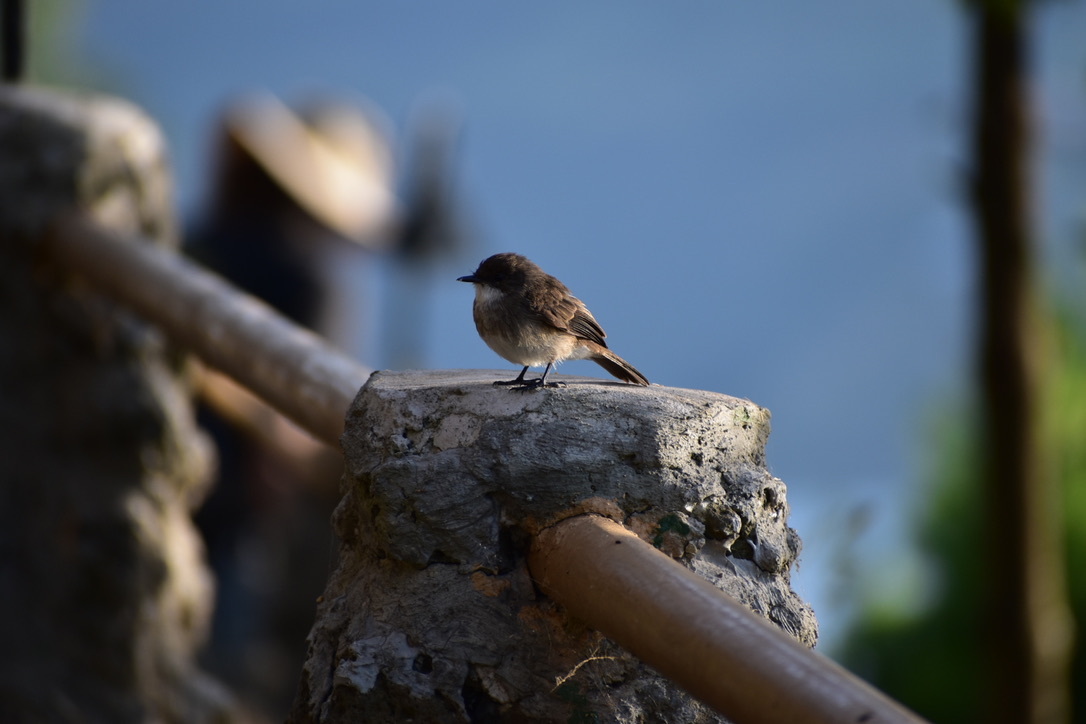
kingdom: Animalia
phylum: Chordata
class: Aves
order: Passeriformes
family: Muscicapidae
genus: Muscicapa
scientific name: Muscicapa aquatica
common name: Swamp flycatcher
